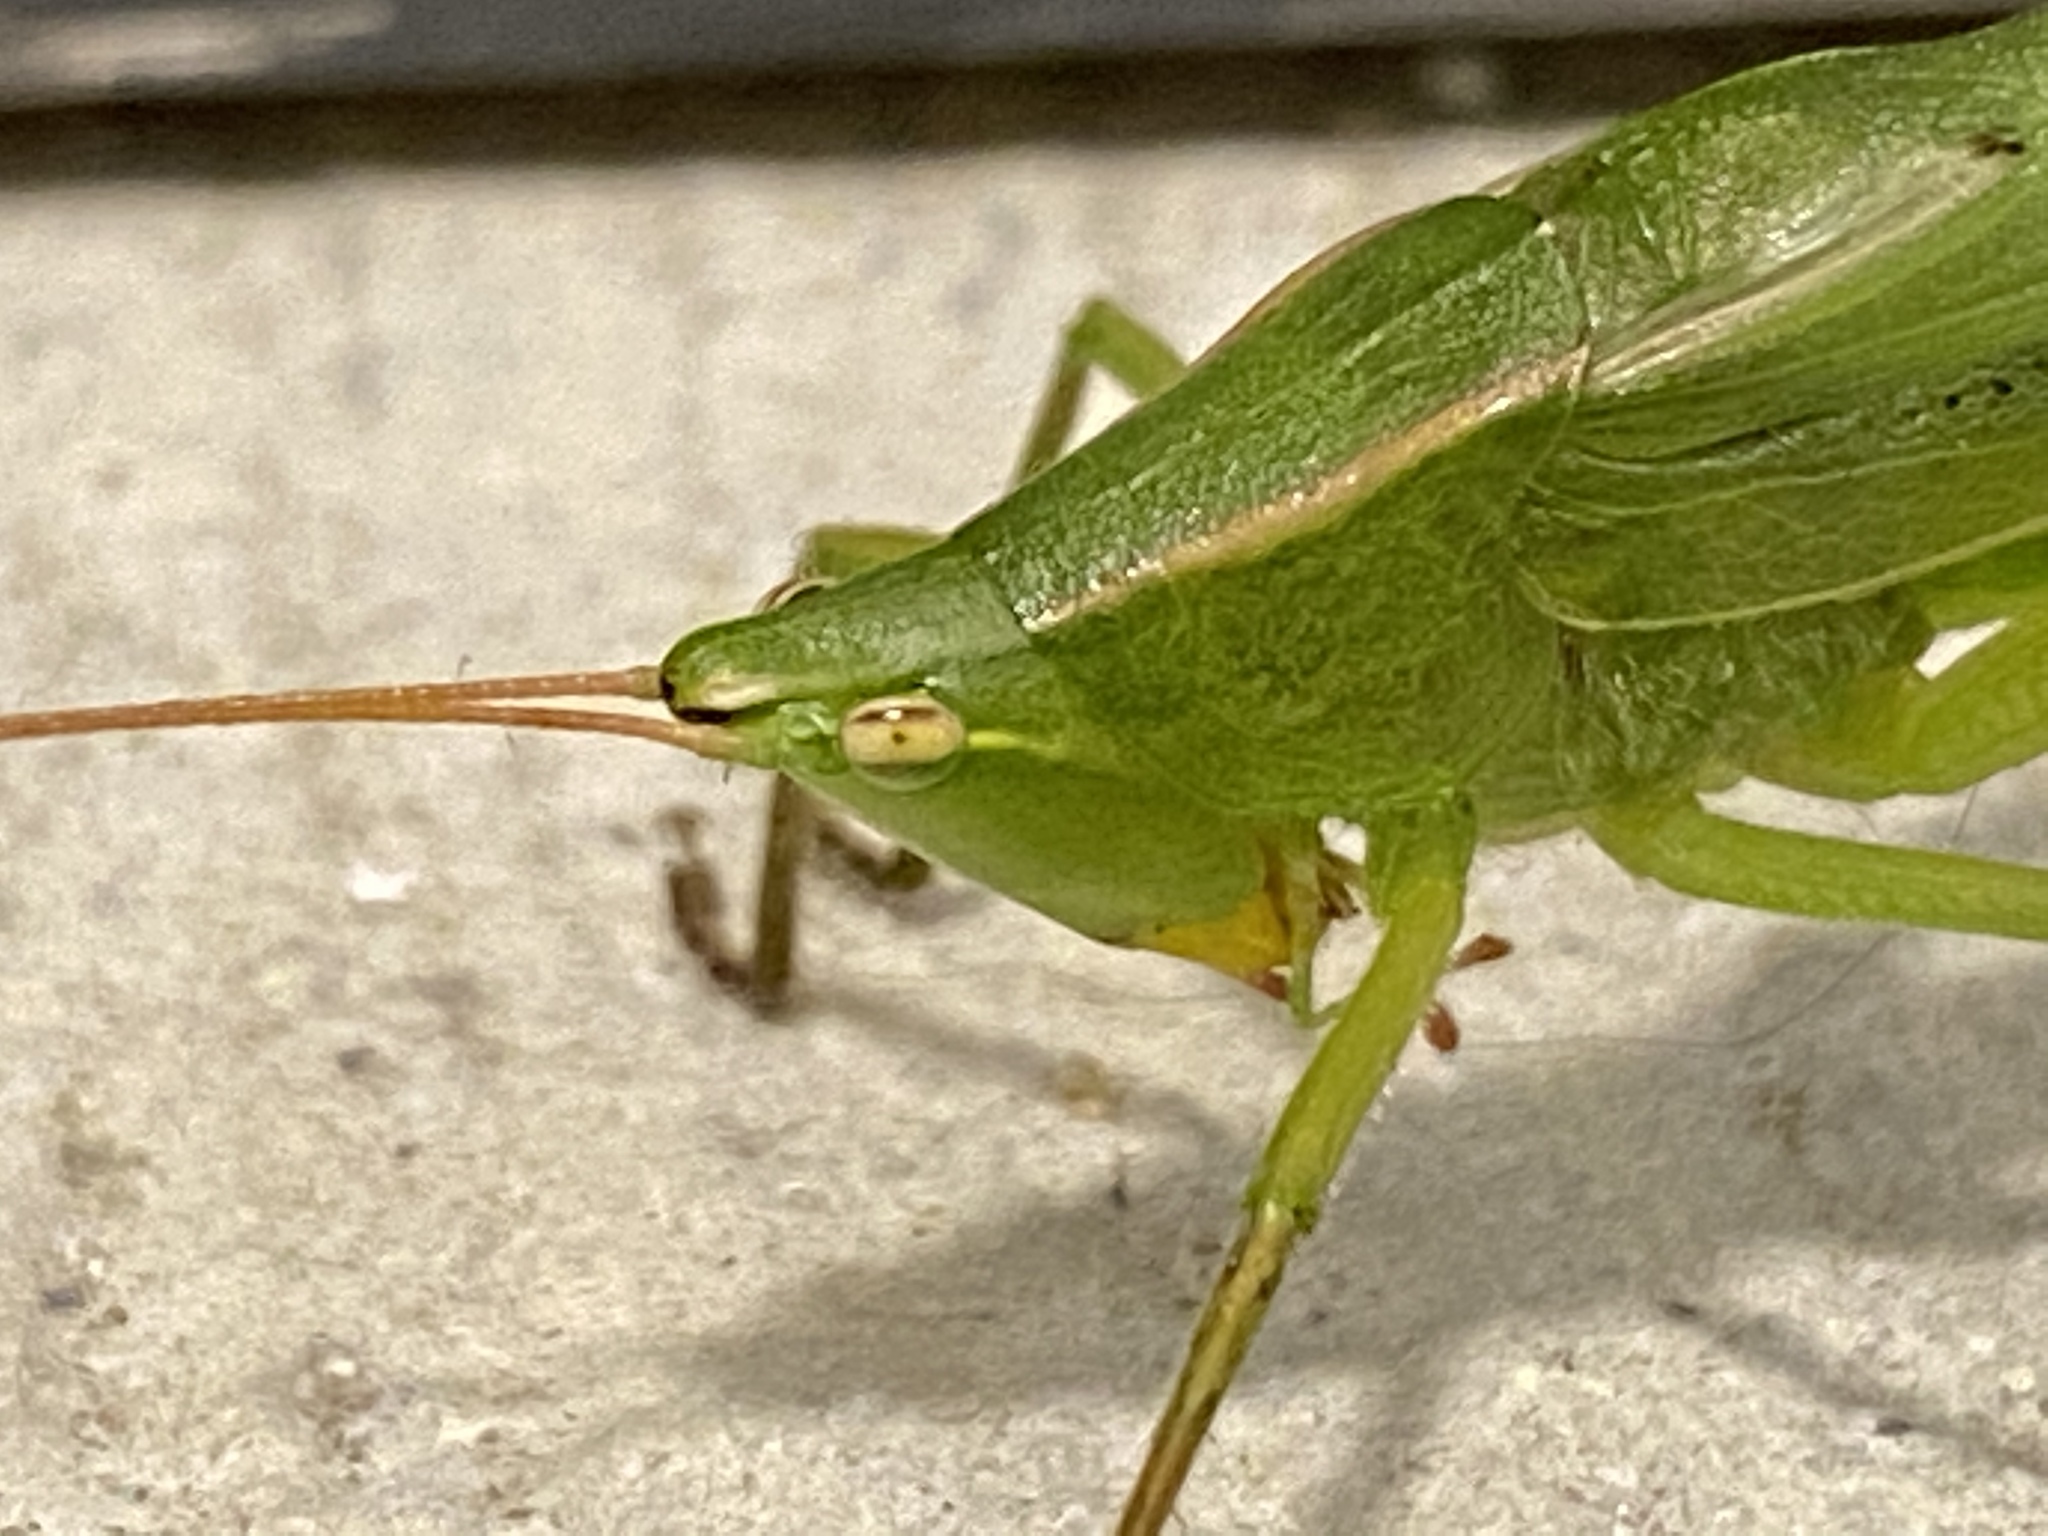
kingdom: Animalia
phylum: Arthropoda
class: Insecta
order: Orthoptera
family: Tettigoniidae
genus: Neoconocephalus
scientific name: Neoconocephalus retusus
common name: Round-tipped conehead
